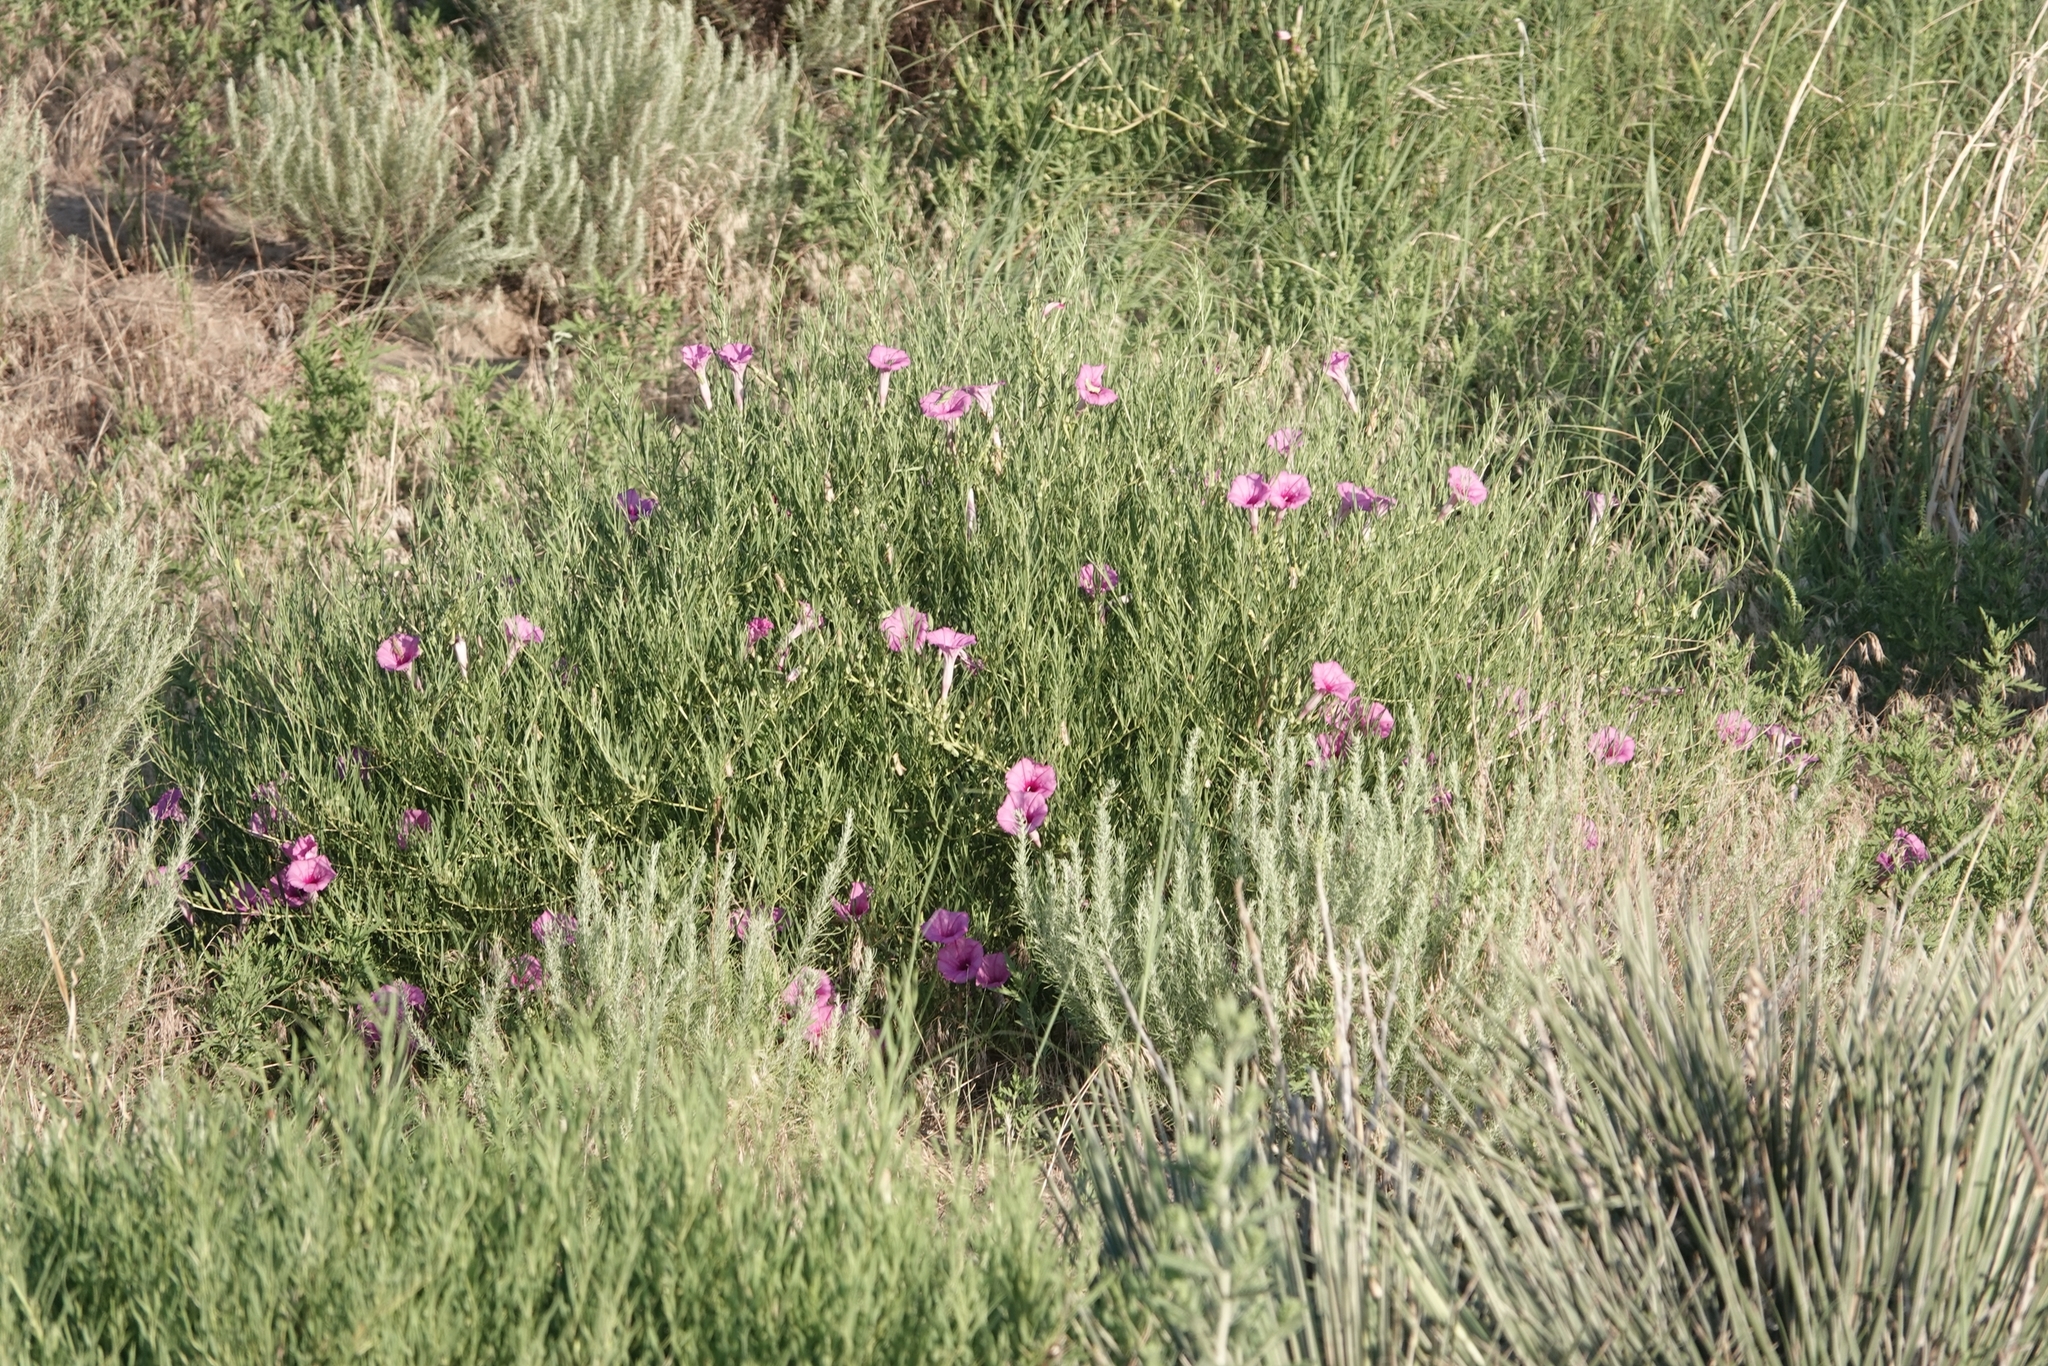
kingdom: Plantae
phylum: Tracheophyta
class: Magnoliopsida
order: Solanales
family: Convolvulaceae
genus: Ipomoea
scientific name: Ipomoea leptophylla
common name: Bush moonflower
